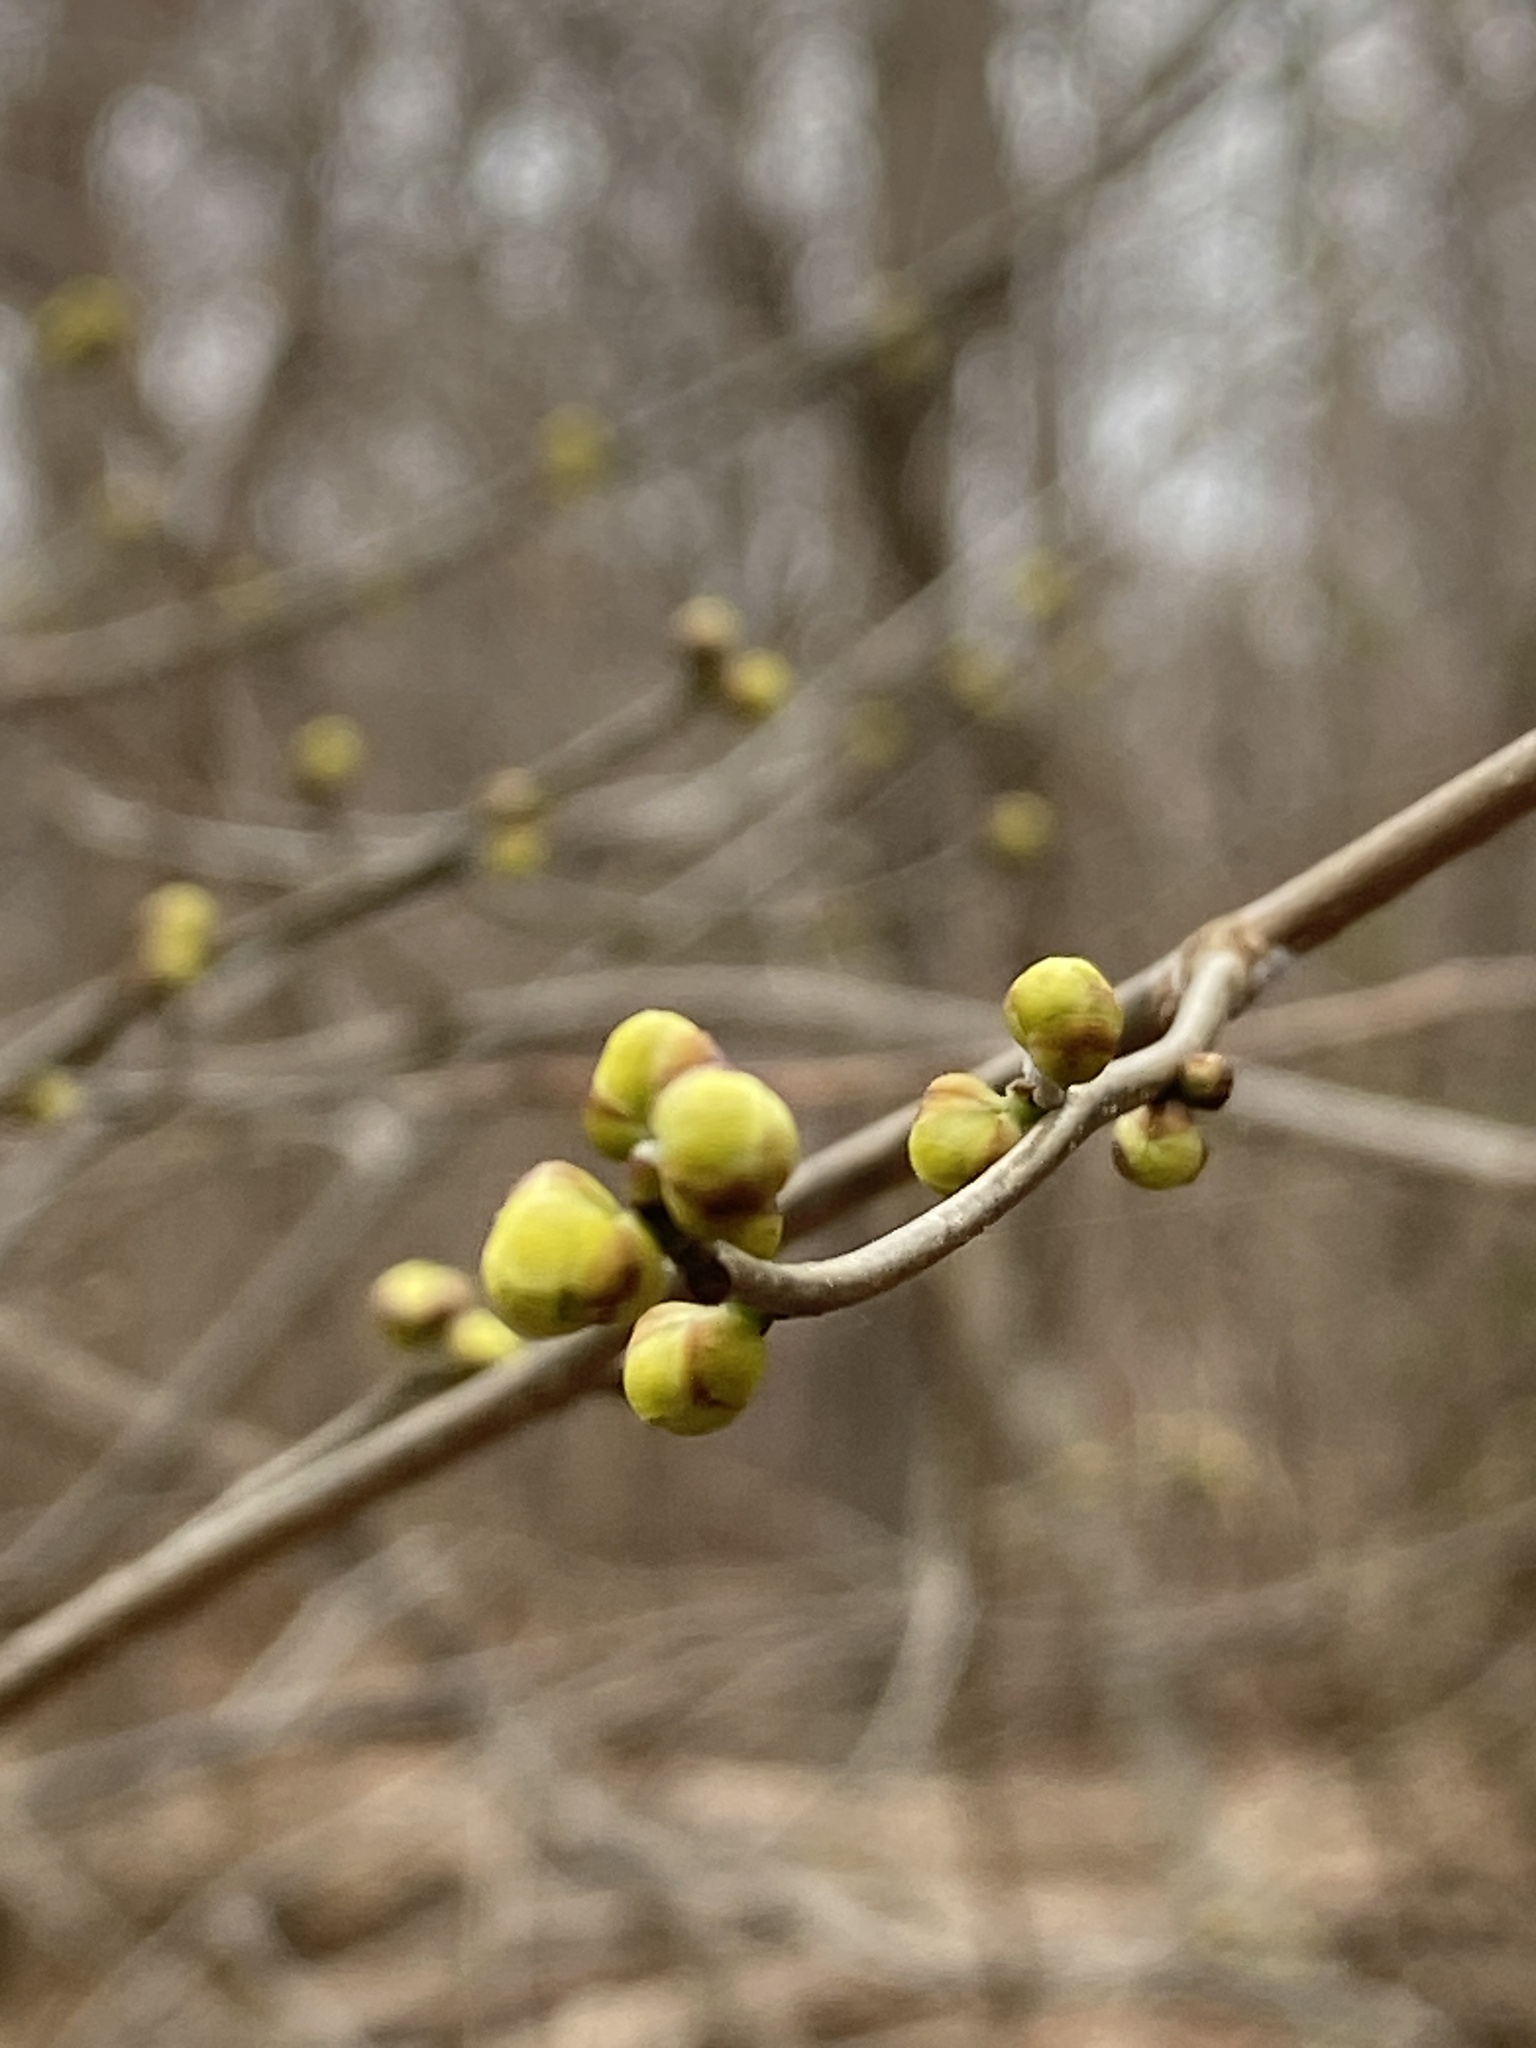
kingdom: Plantae
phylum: Tracheophyta
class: Magnoliopsida
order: Laurales
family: Lauraceae
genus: Lindera
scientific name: Lindera benzoin
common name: Spicebush
